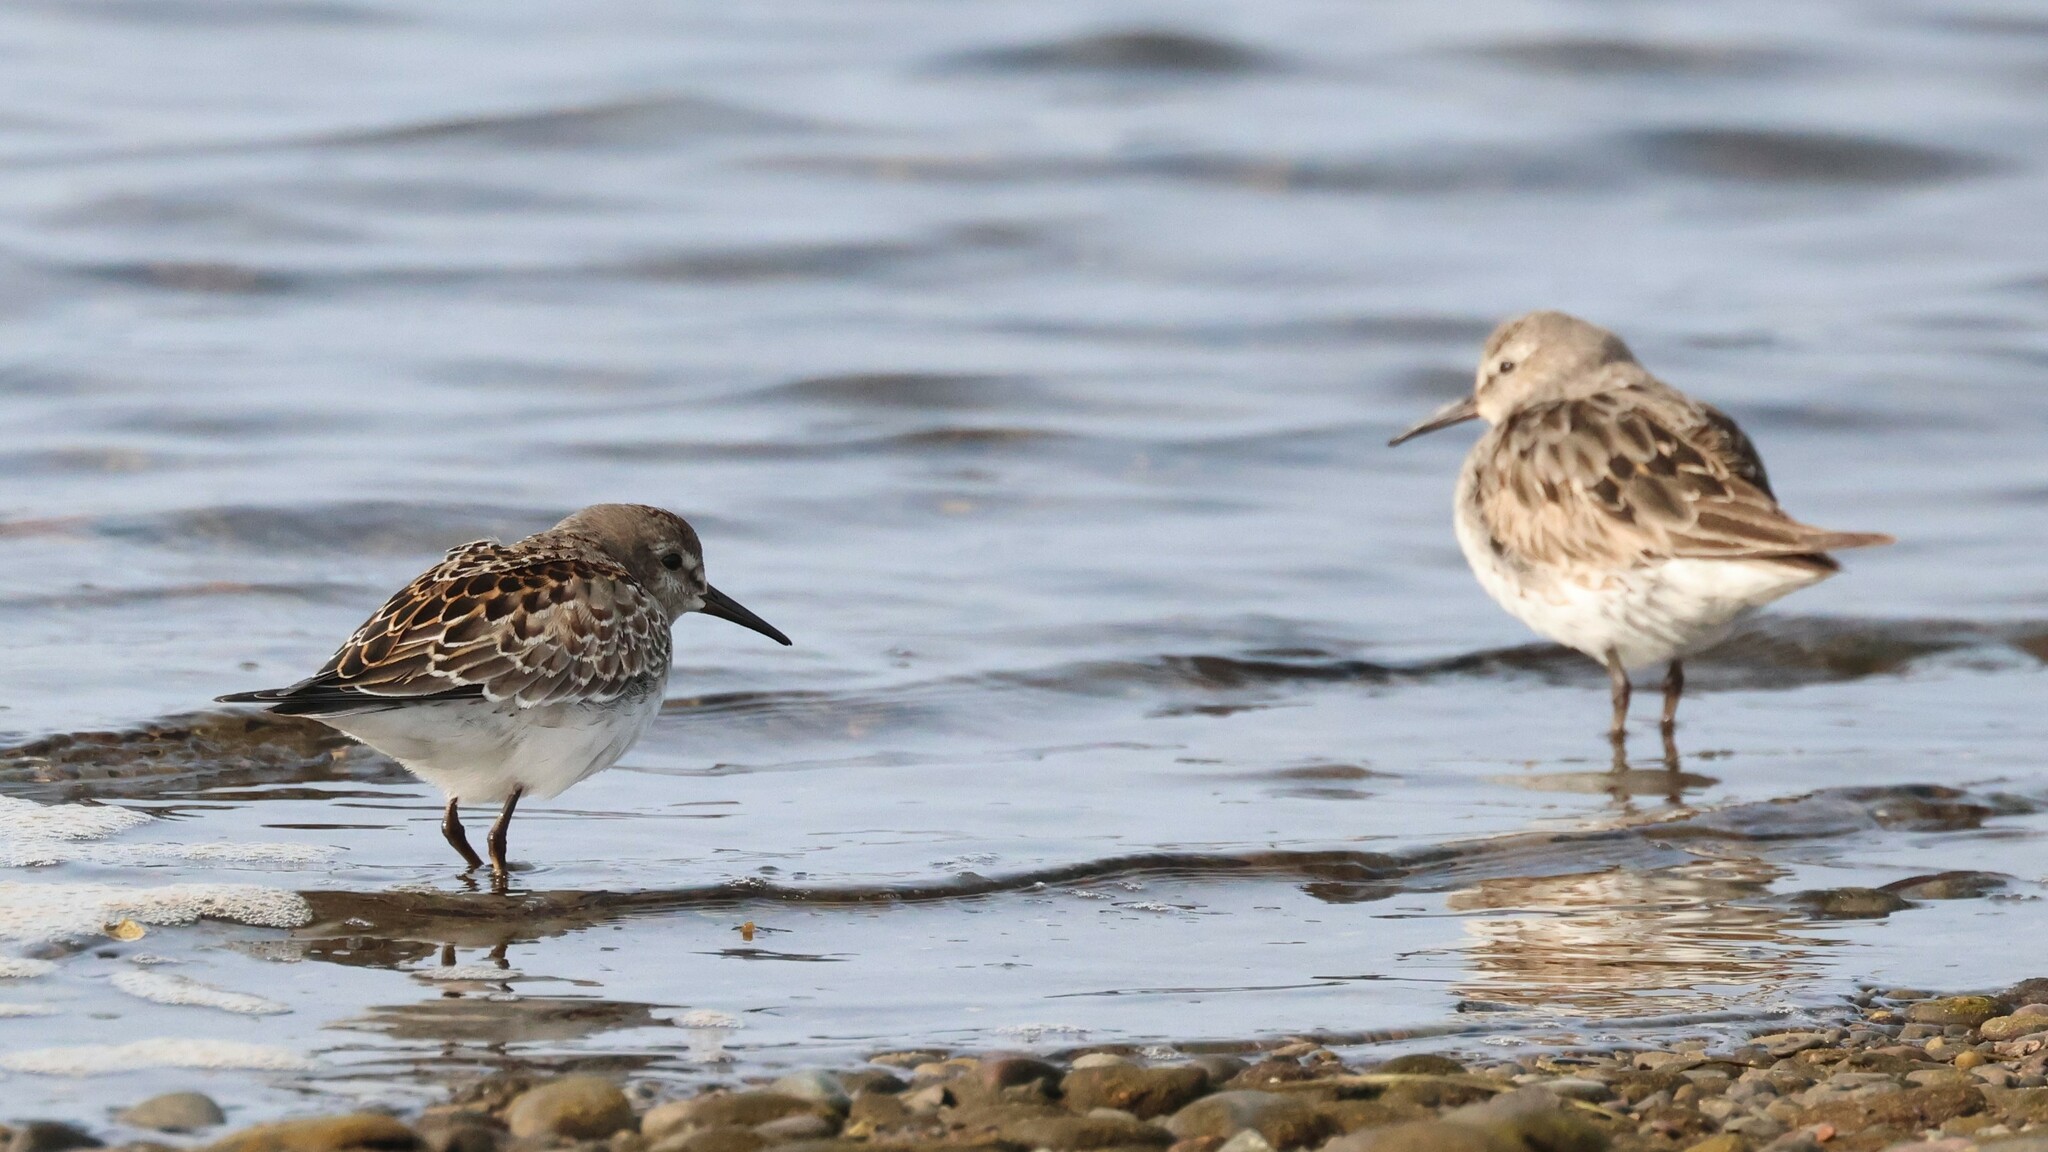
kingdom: Animalia
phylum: Chordata
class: Aves
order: Charadriiformes
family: Scolopacidae
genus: Calidris
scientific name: Calidris fuscicollis
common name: White-rumped sandpiper
